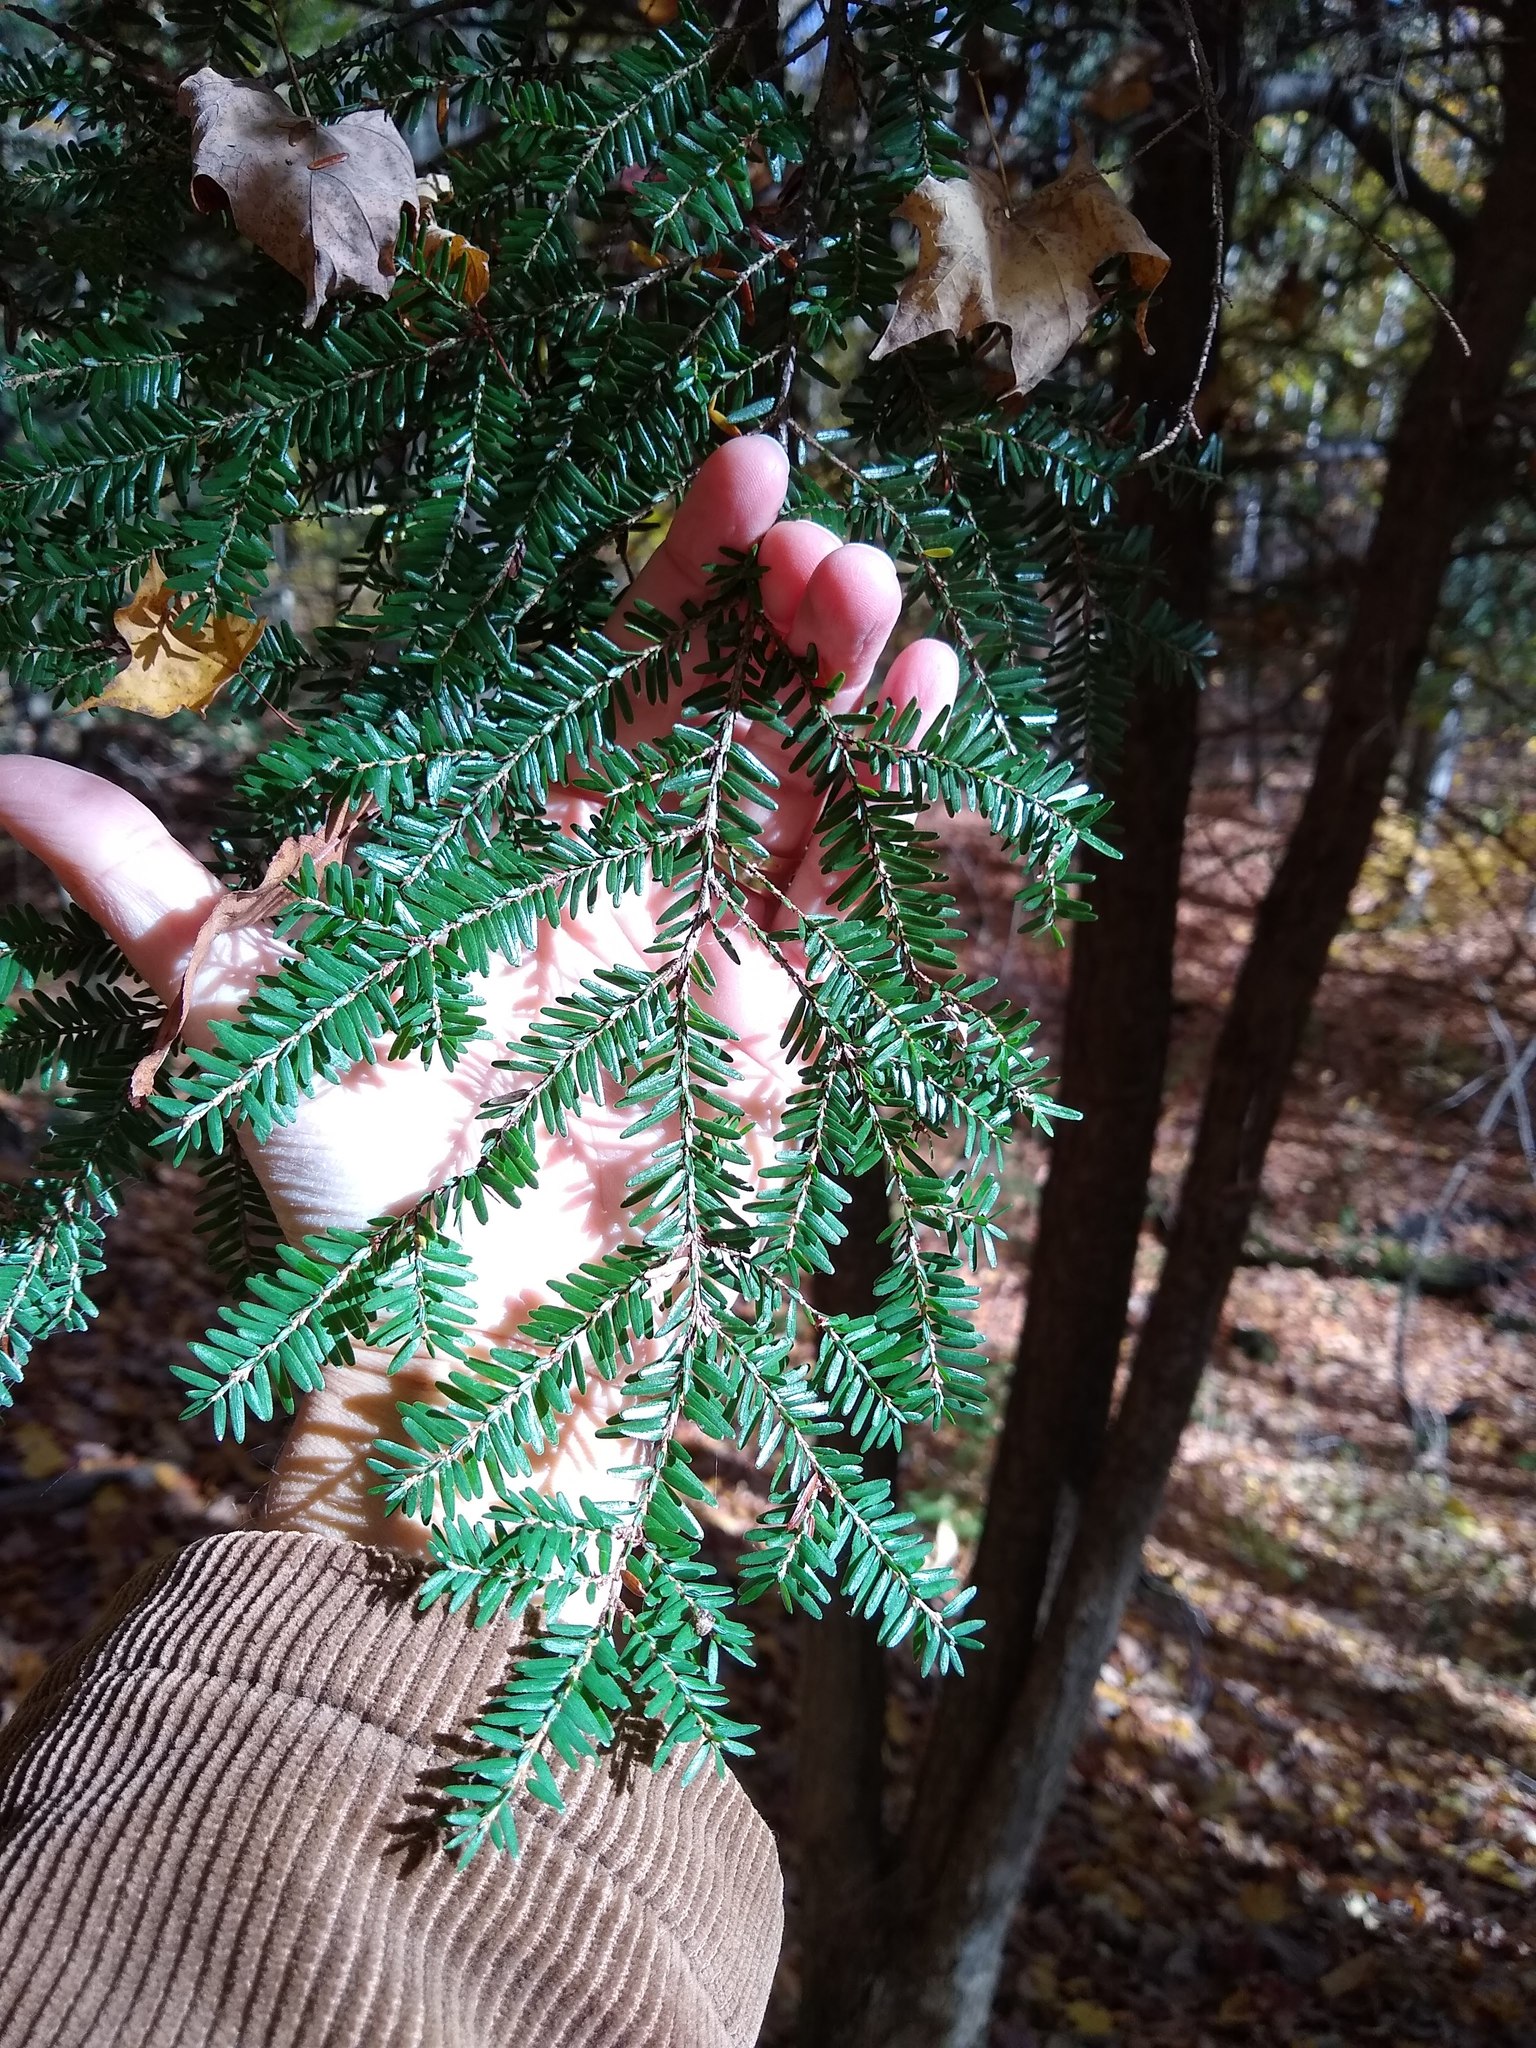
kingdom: Plantae
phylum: Tracheophyta
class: Pinopsida
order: Pinales
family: Pinaceae
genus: Tsuga
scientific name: Tsuga canadensis
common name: Eastern hemlock
